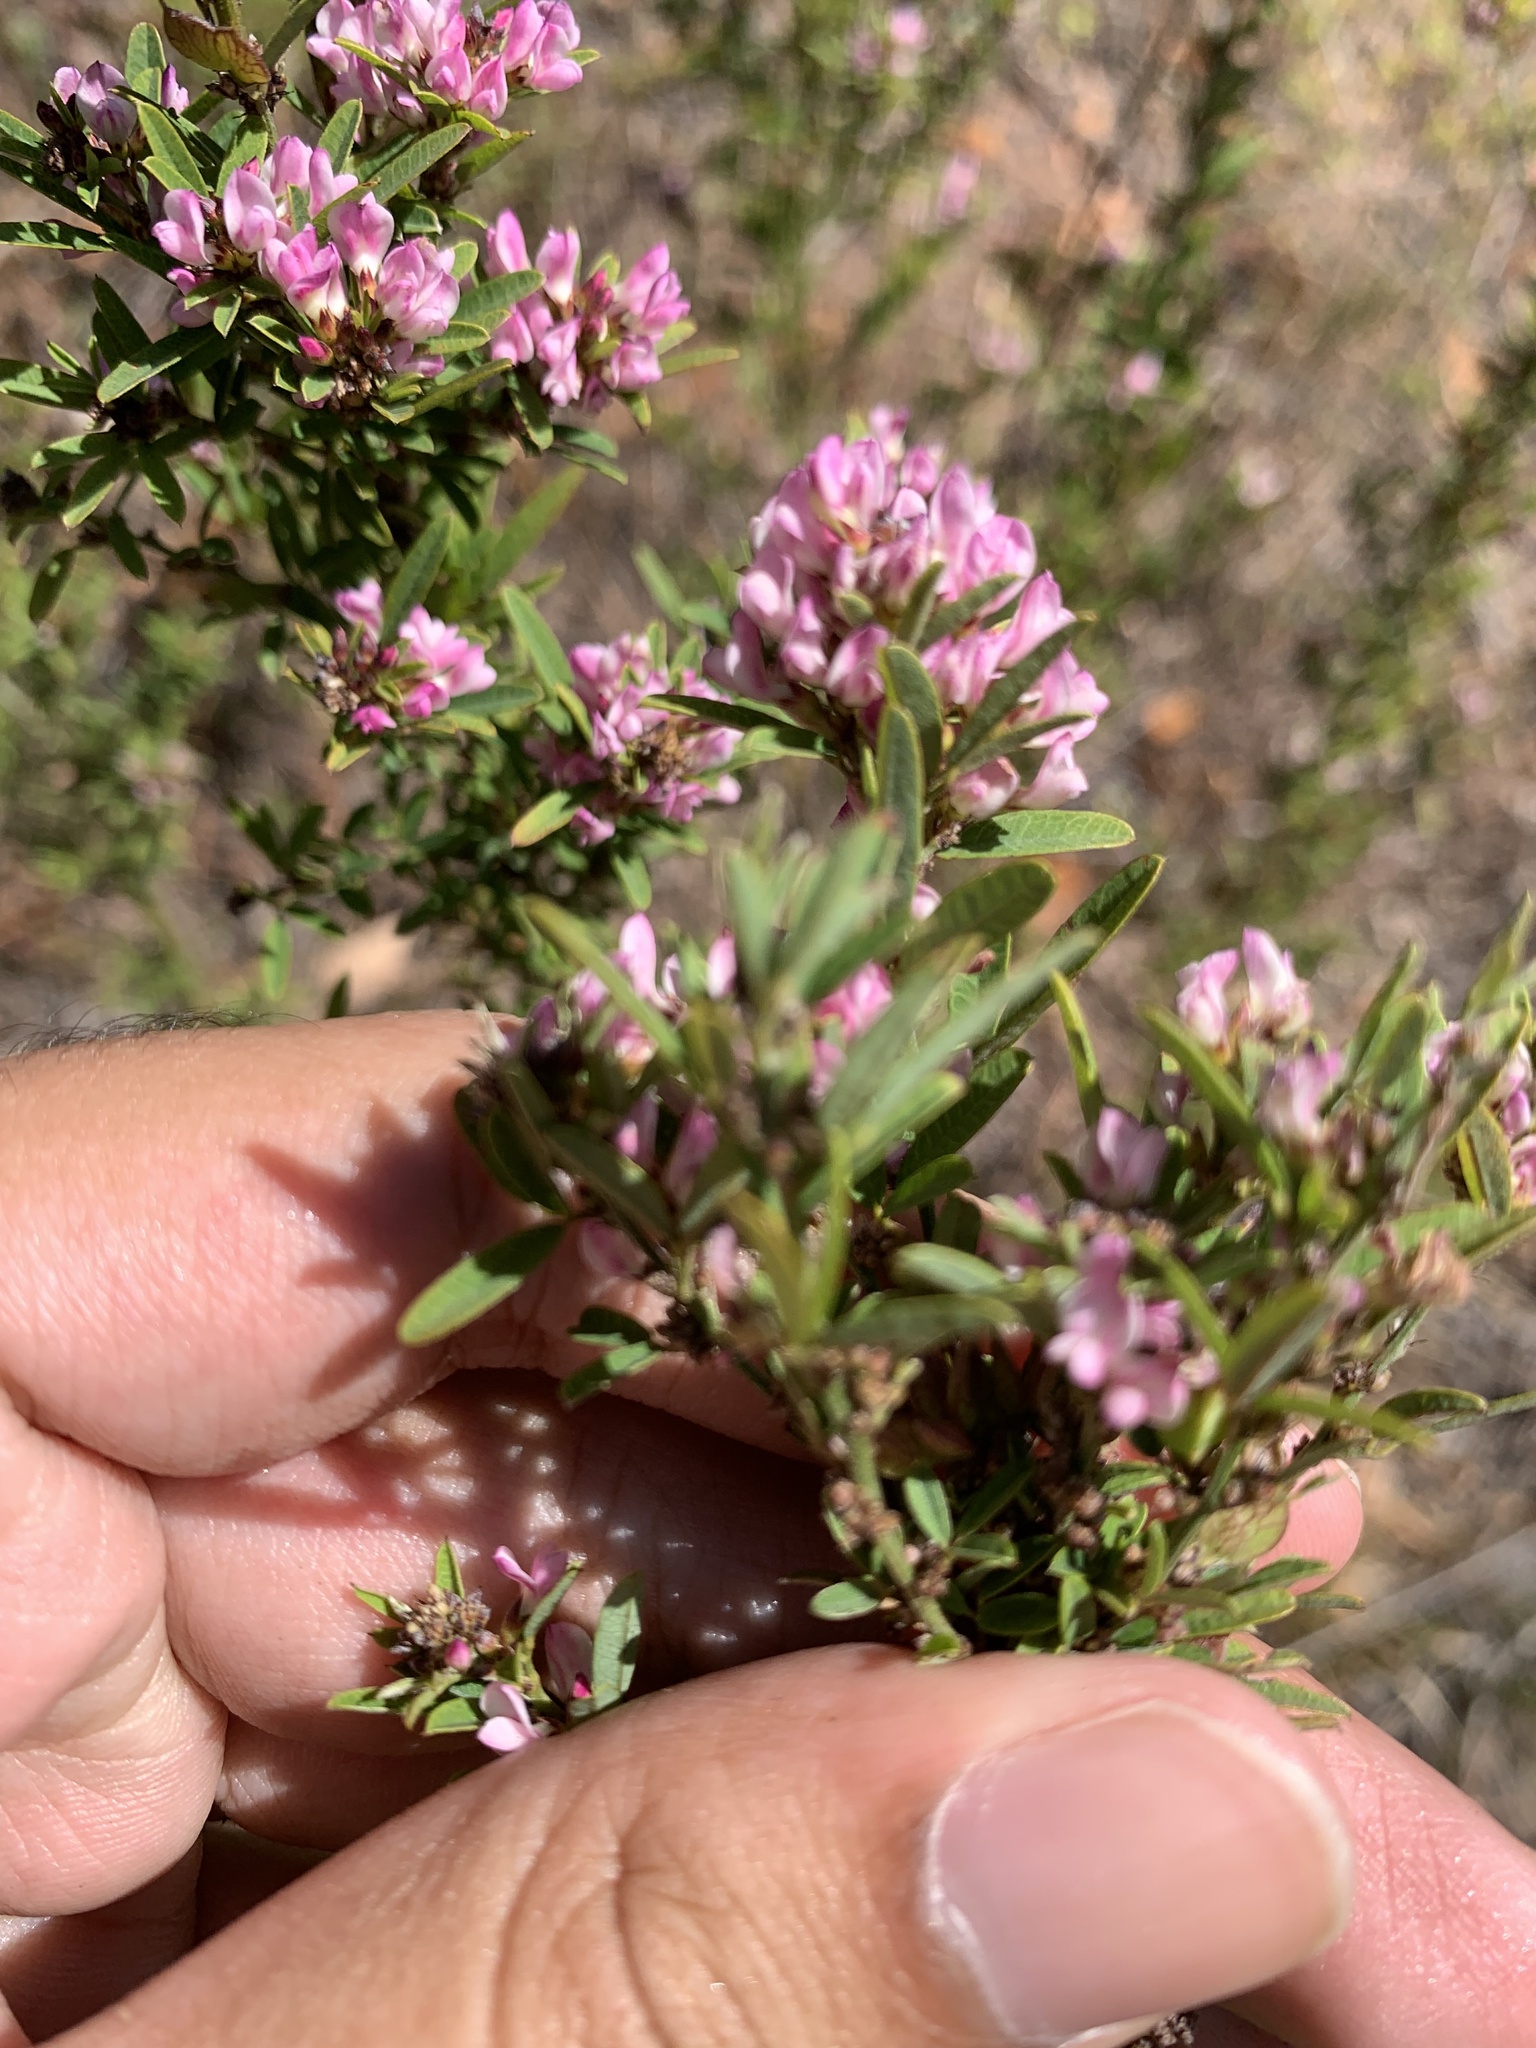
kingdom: Plantae
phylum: Tracheophyta
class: Magnoliopsida
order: Fabales
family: Fabaceae
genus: Lespedeza
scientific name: Lespedeza virginica
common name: Slender bush-clover
